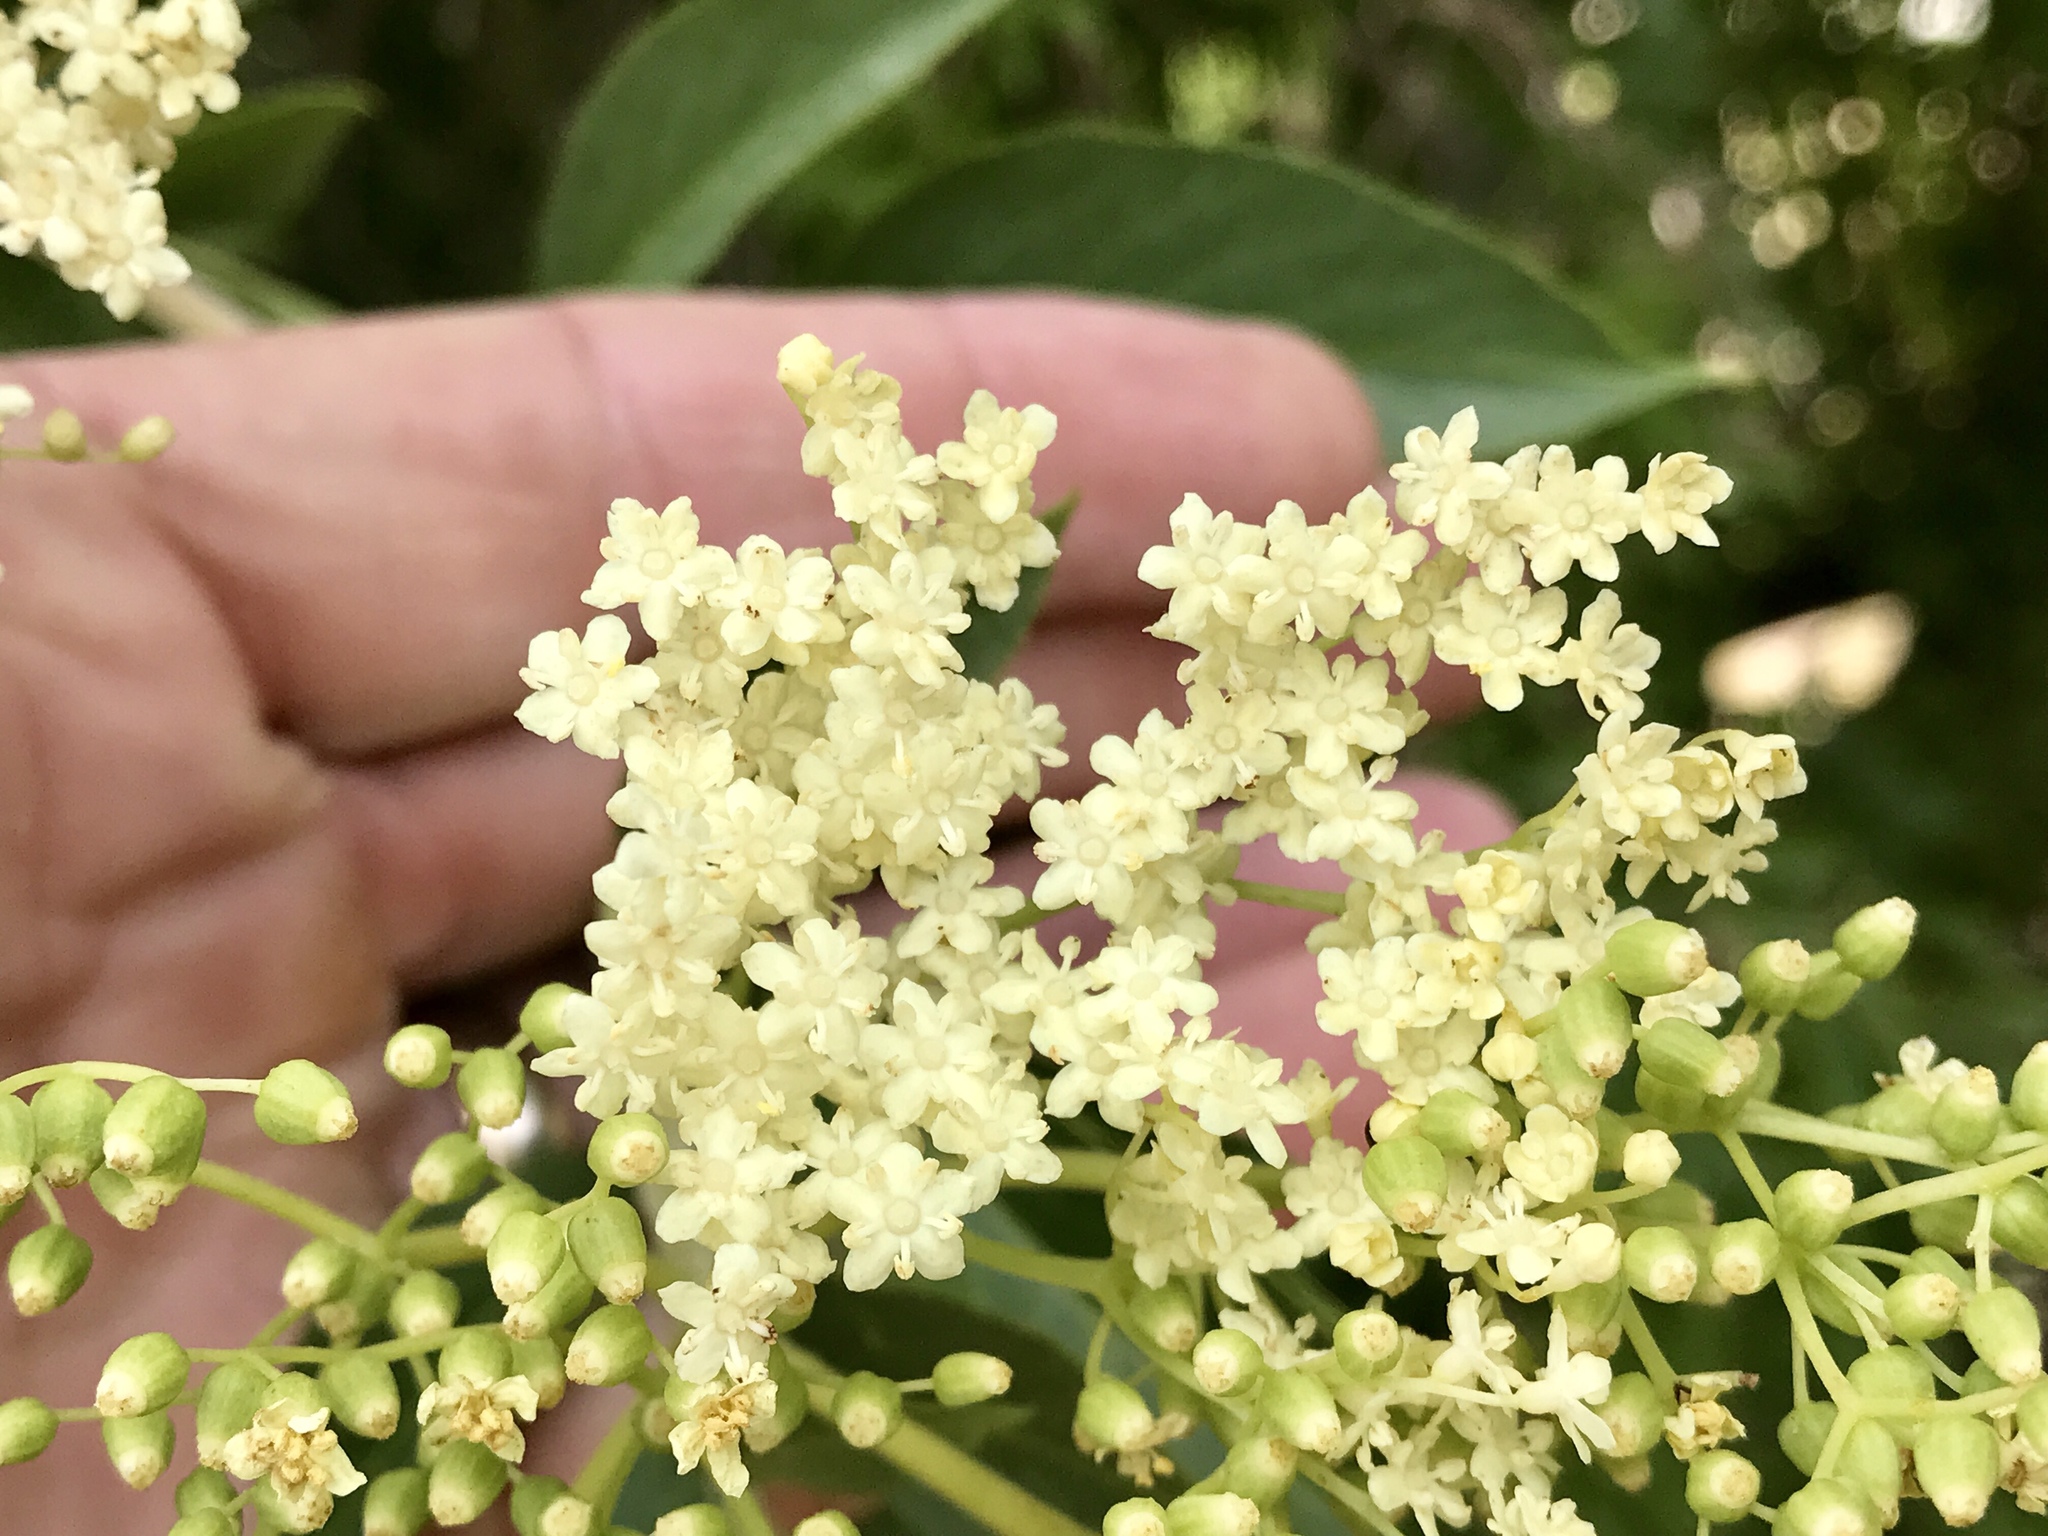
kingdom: Plantae
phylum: Tracheophyta
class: Magnoliopsida
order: Dipsacales
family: Viburnaceae
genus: Sambucus
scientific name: Sambucus cerulea
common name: Blue elder
